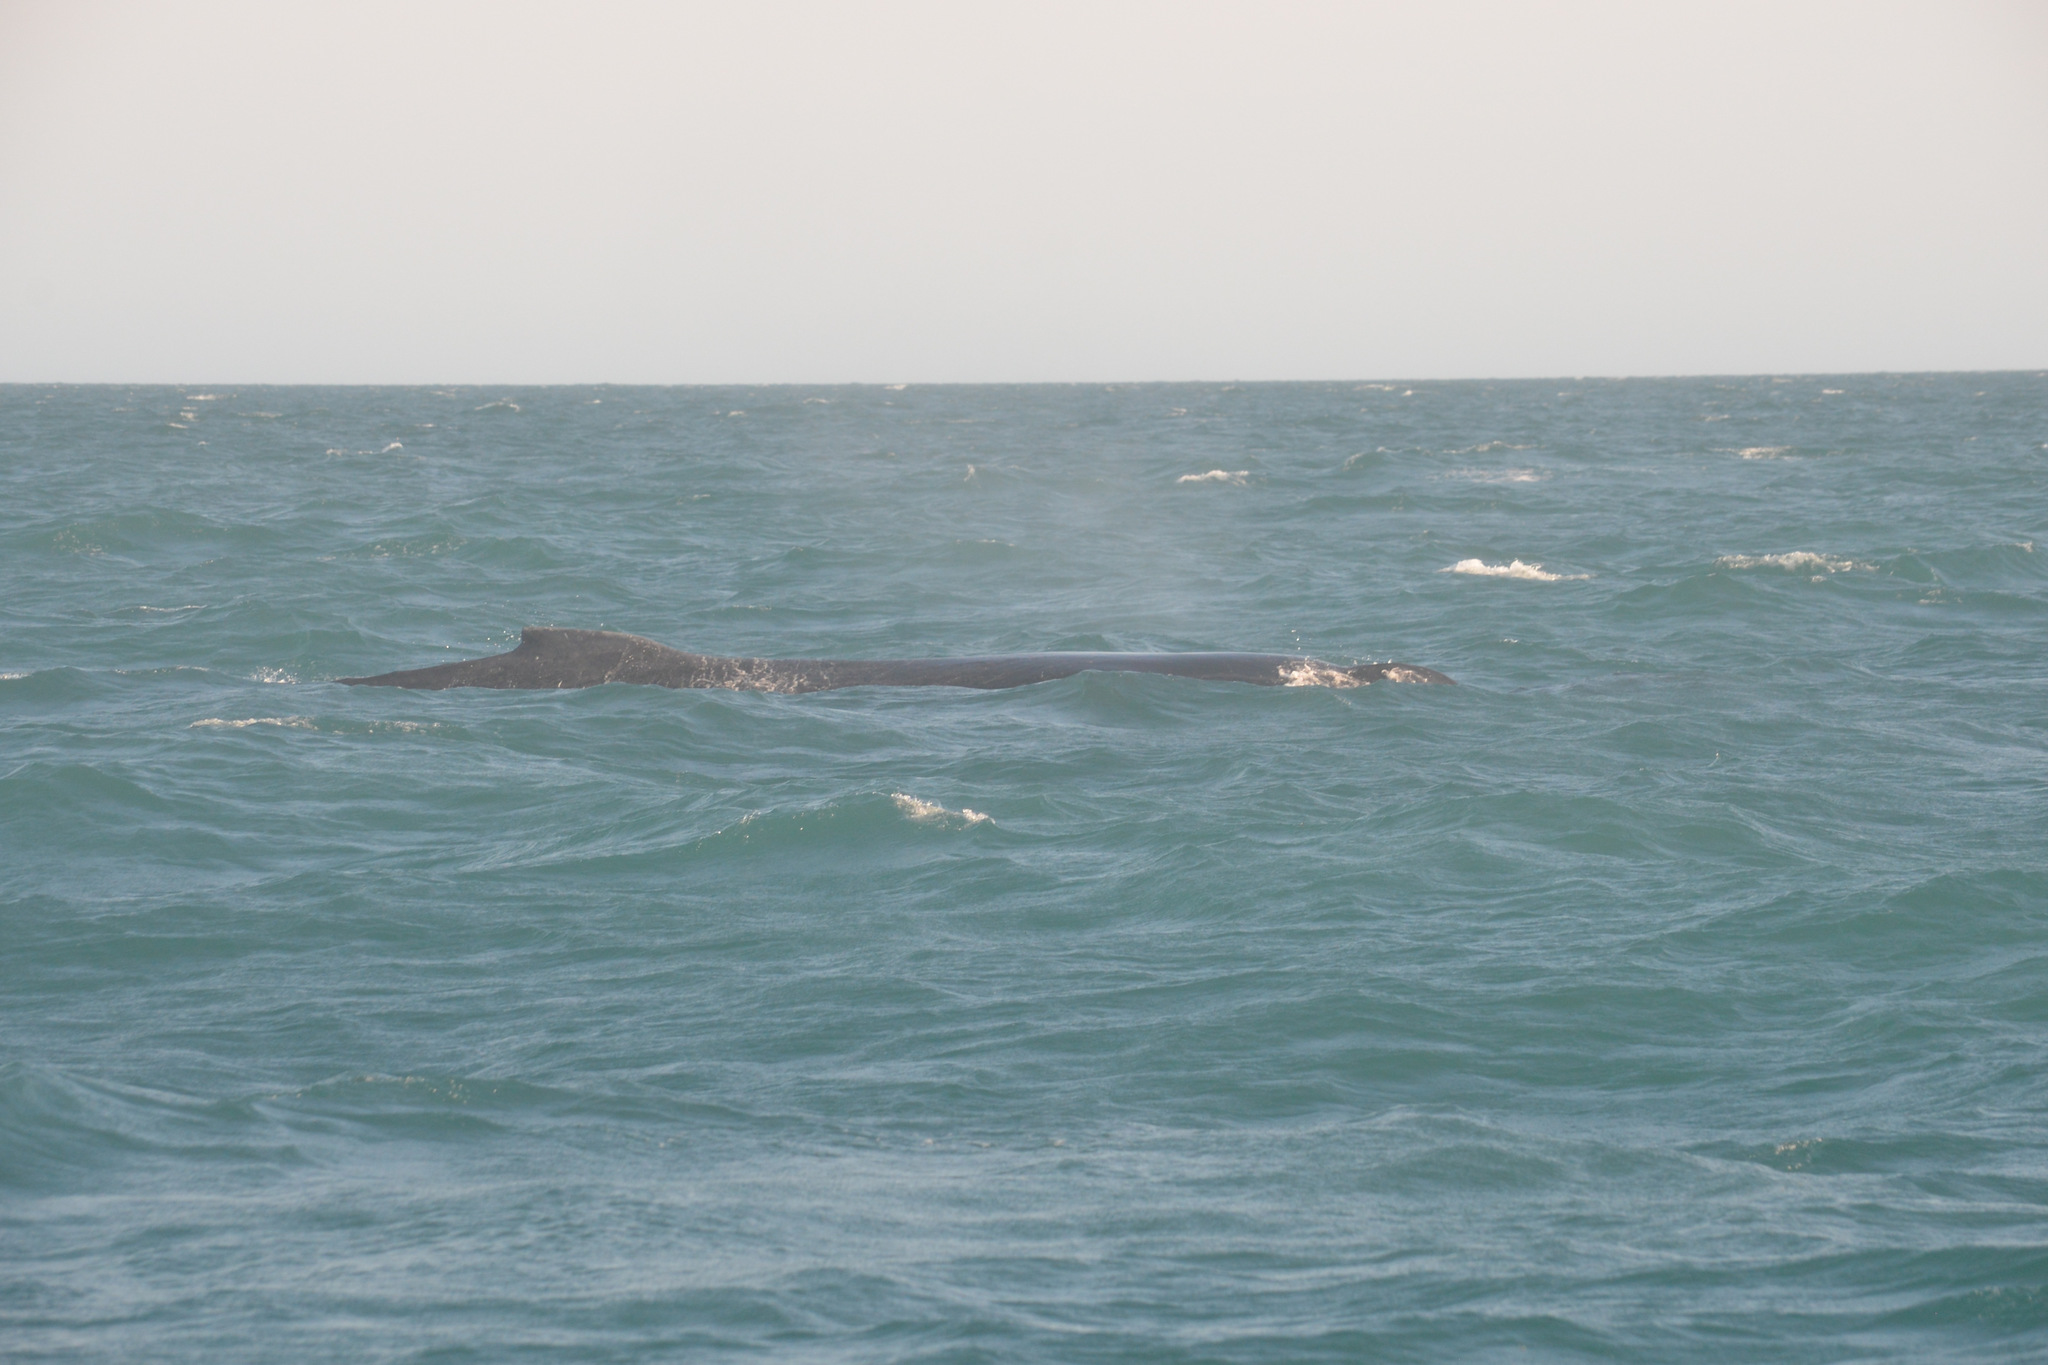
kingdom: Animalia
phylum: Chordata
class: Mammalia
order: Cetacea
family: Balaenopteridae
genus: Megaptera
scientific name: Megaptera novaeangliae
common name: Humpback whale
